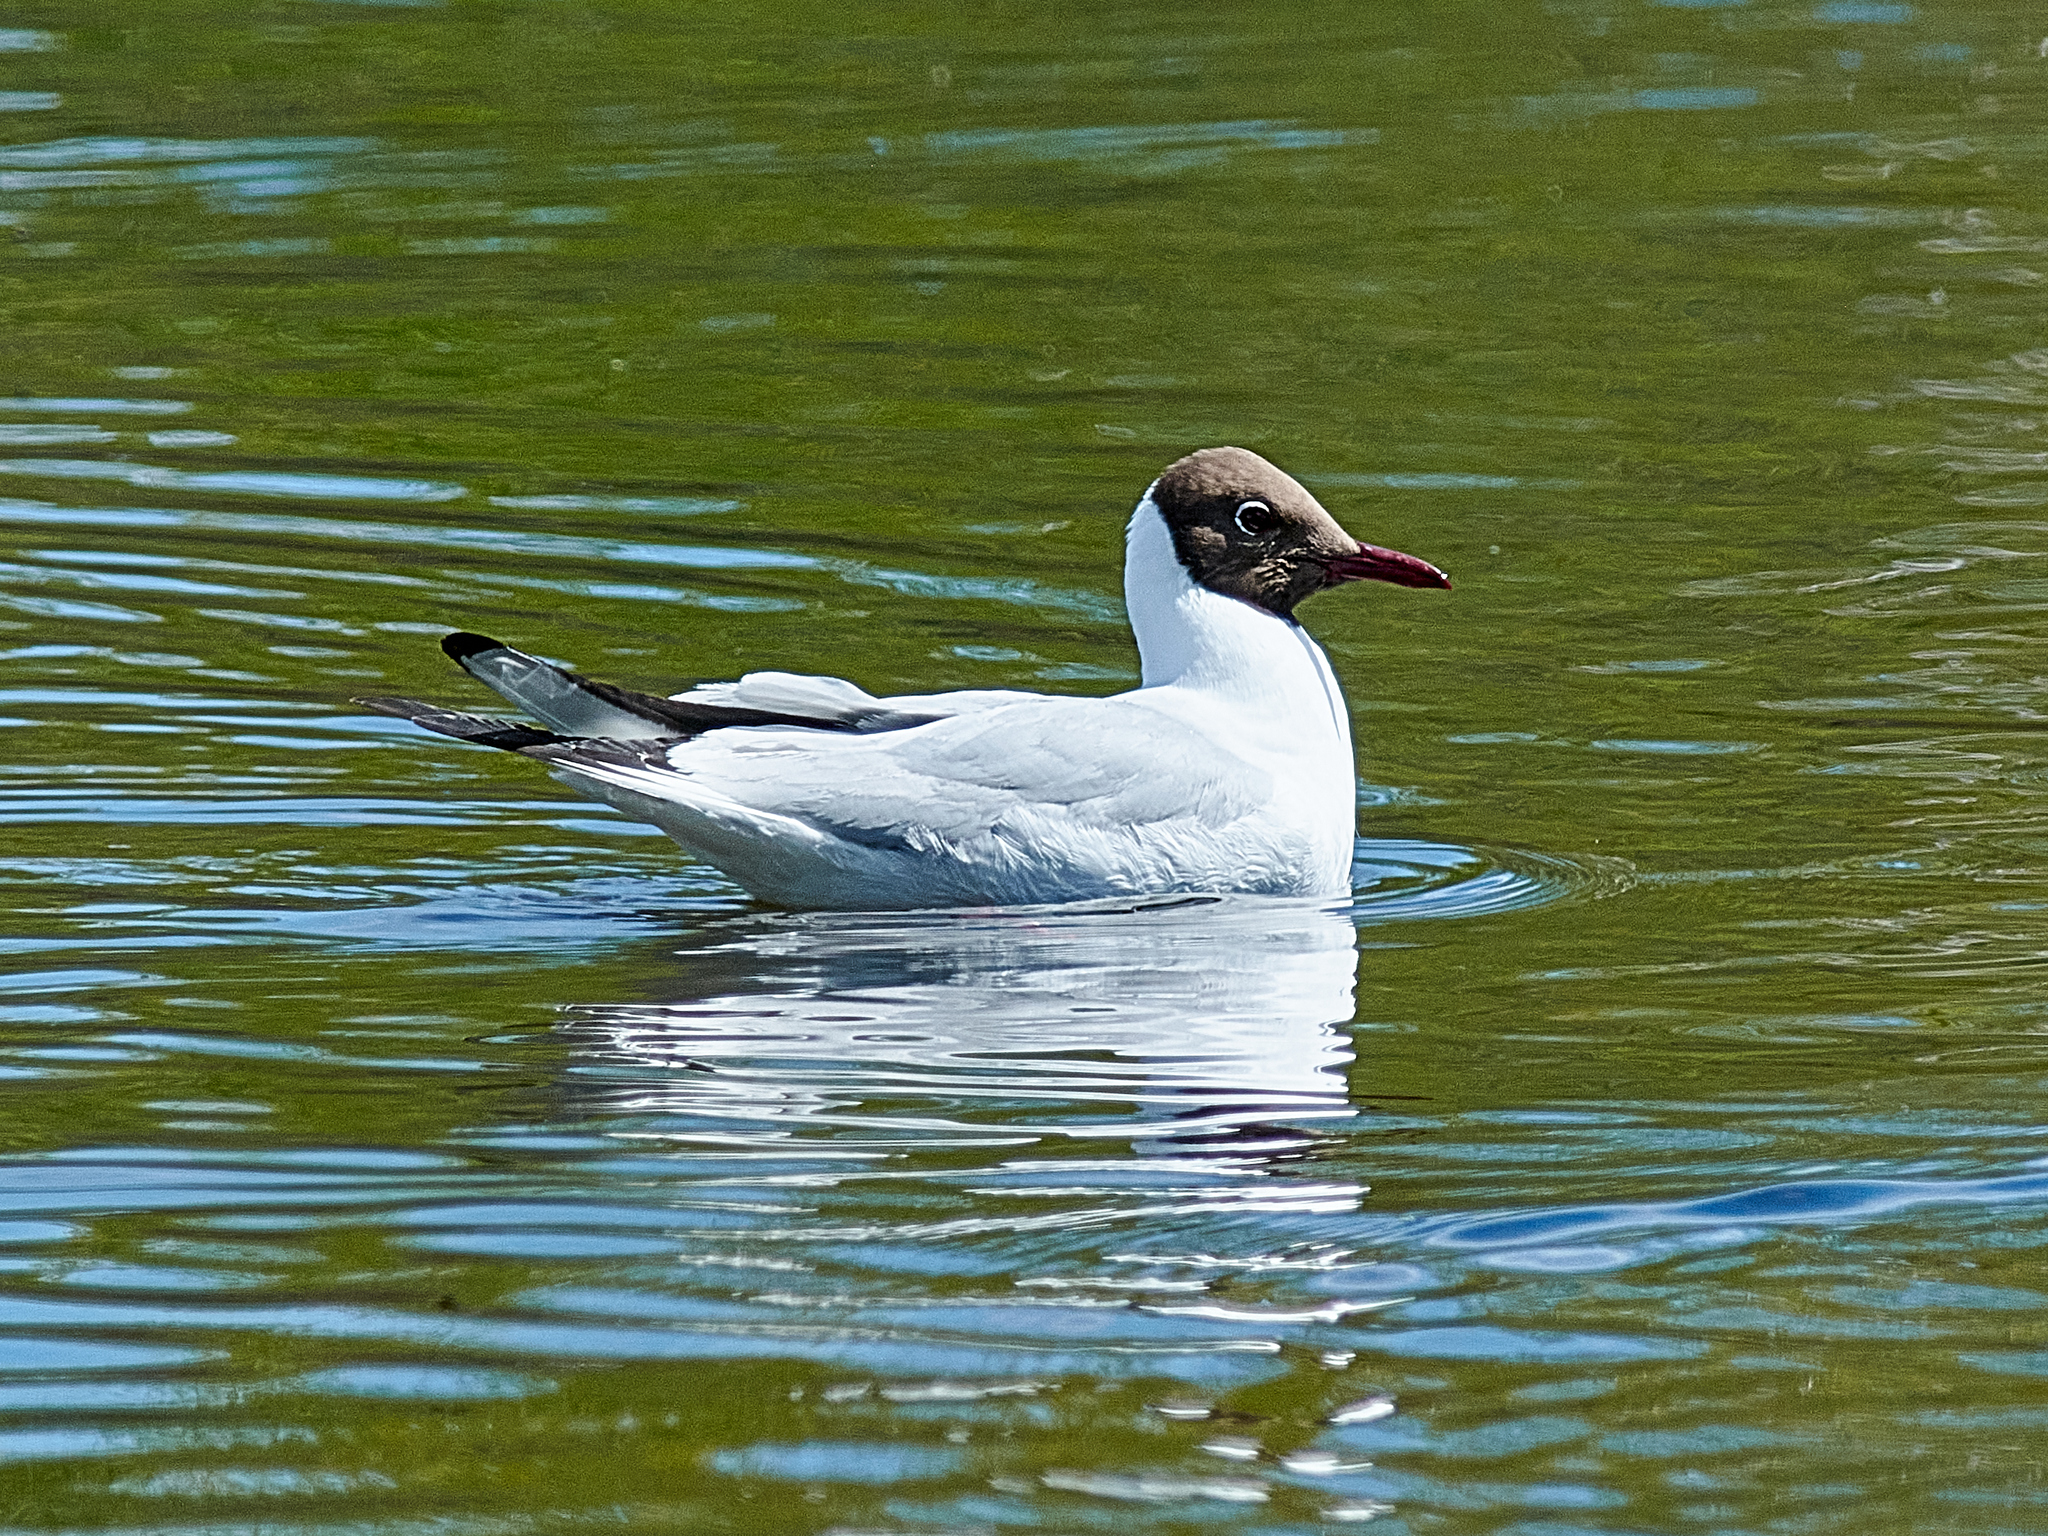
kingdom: Animalia
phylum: Chordata
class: Aves
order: Charadriiformes
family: Laridae
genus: Chroicocephalus
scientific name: Chroicocephalus ridibundus
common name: Black-headed gull
